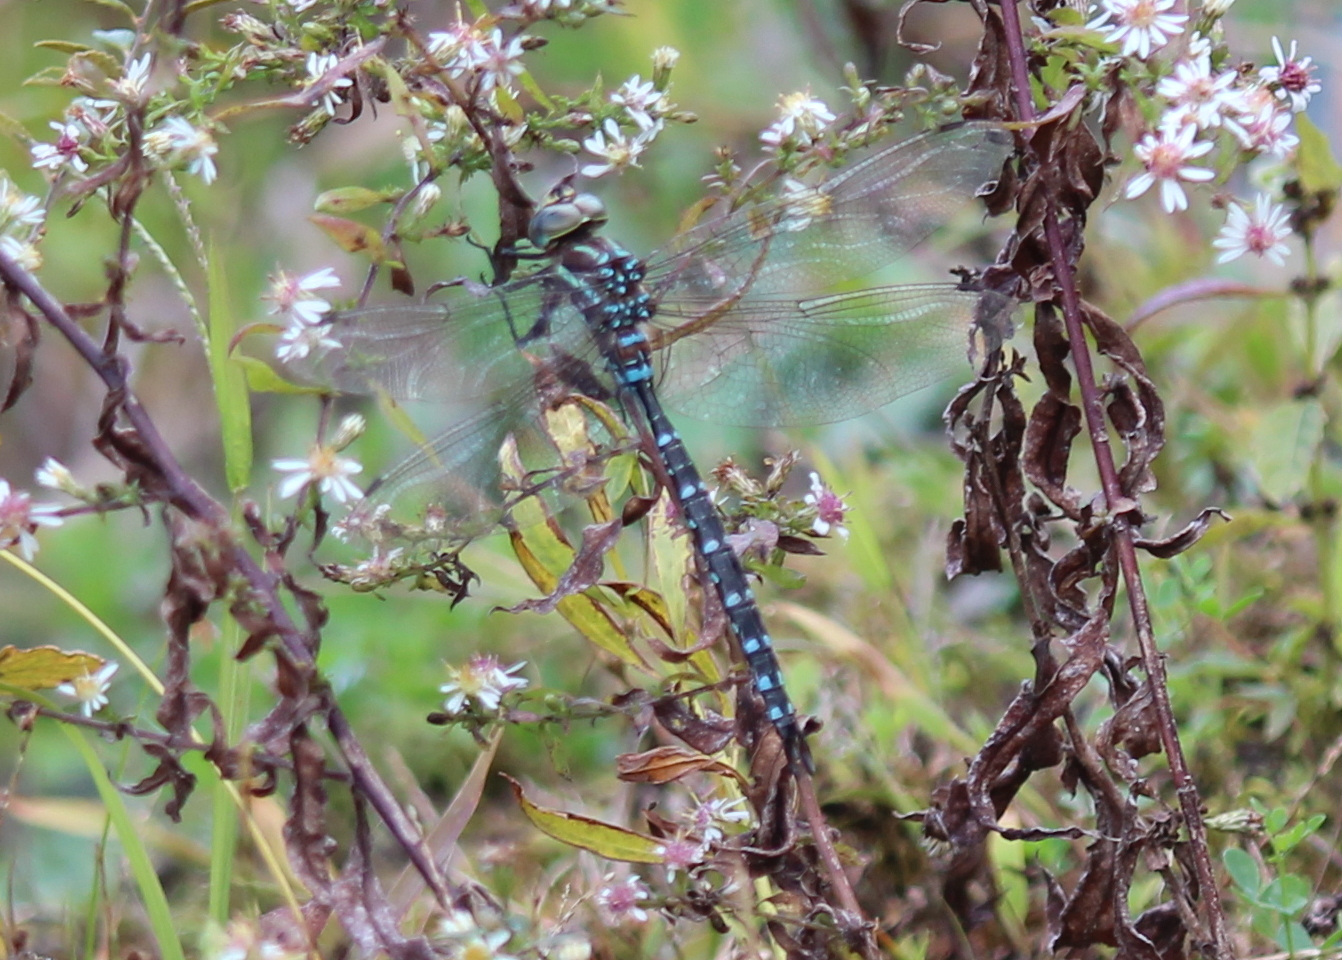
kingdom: Animalia
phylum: Arthropoda
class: Insecta
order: Odonata
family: Aeshnidae
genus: Aeshna
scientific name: Aeshna tuberculifera
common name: Aeschne à tubercules
